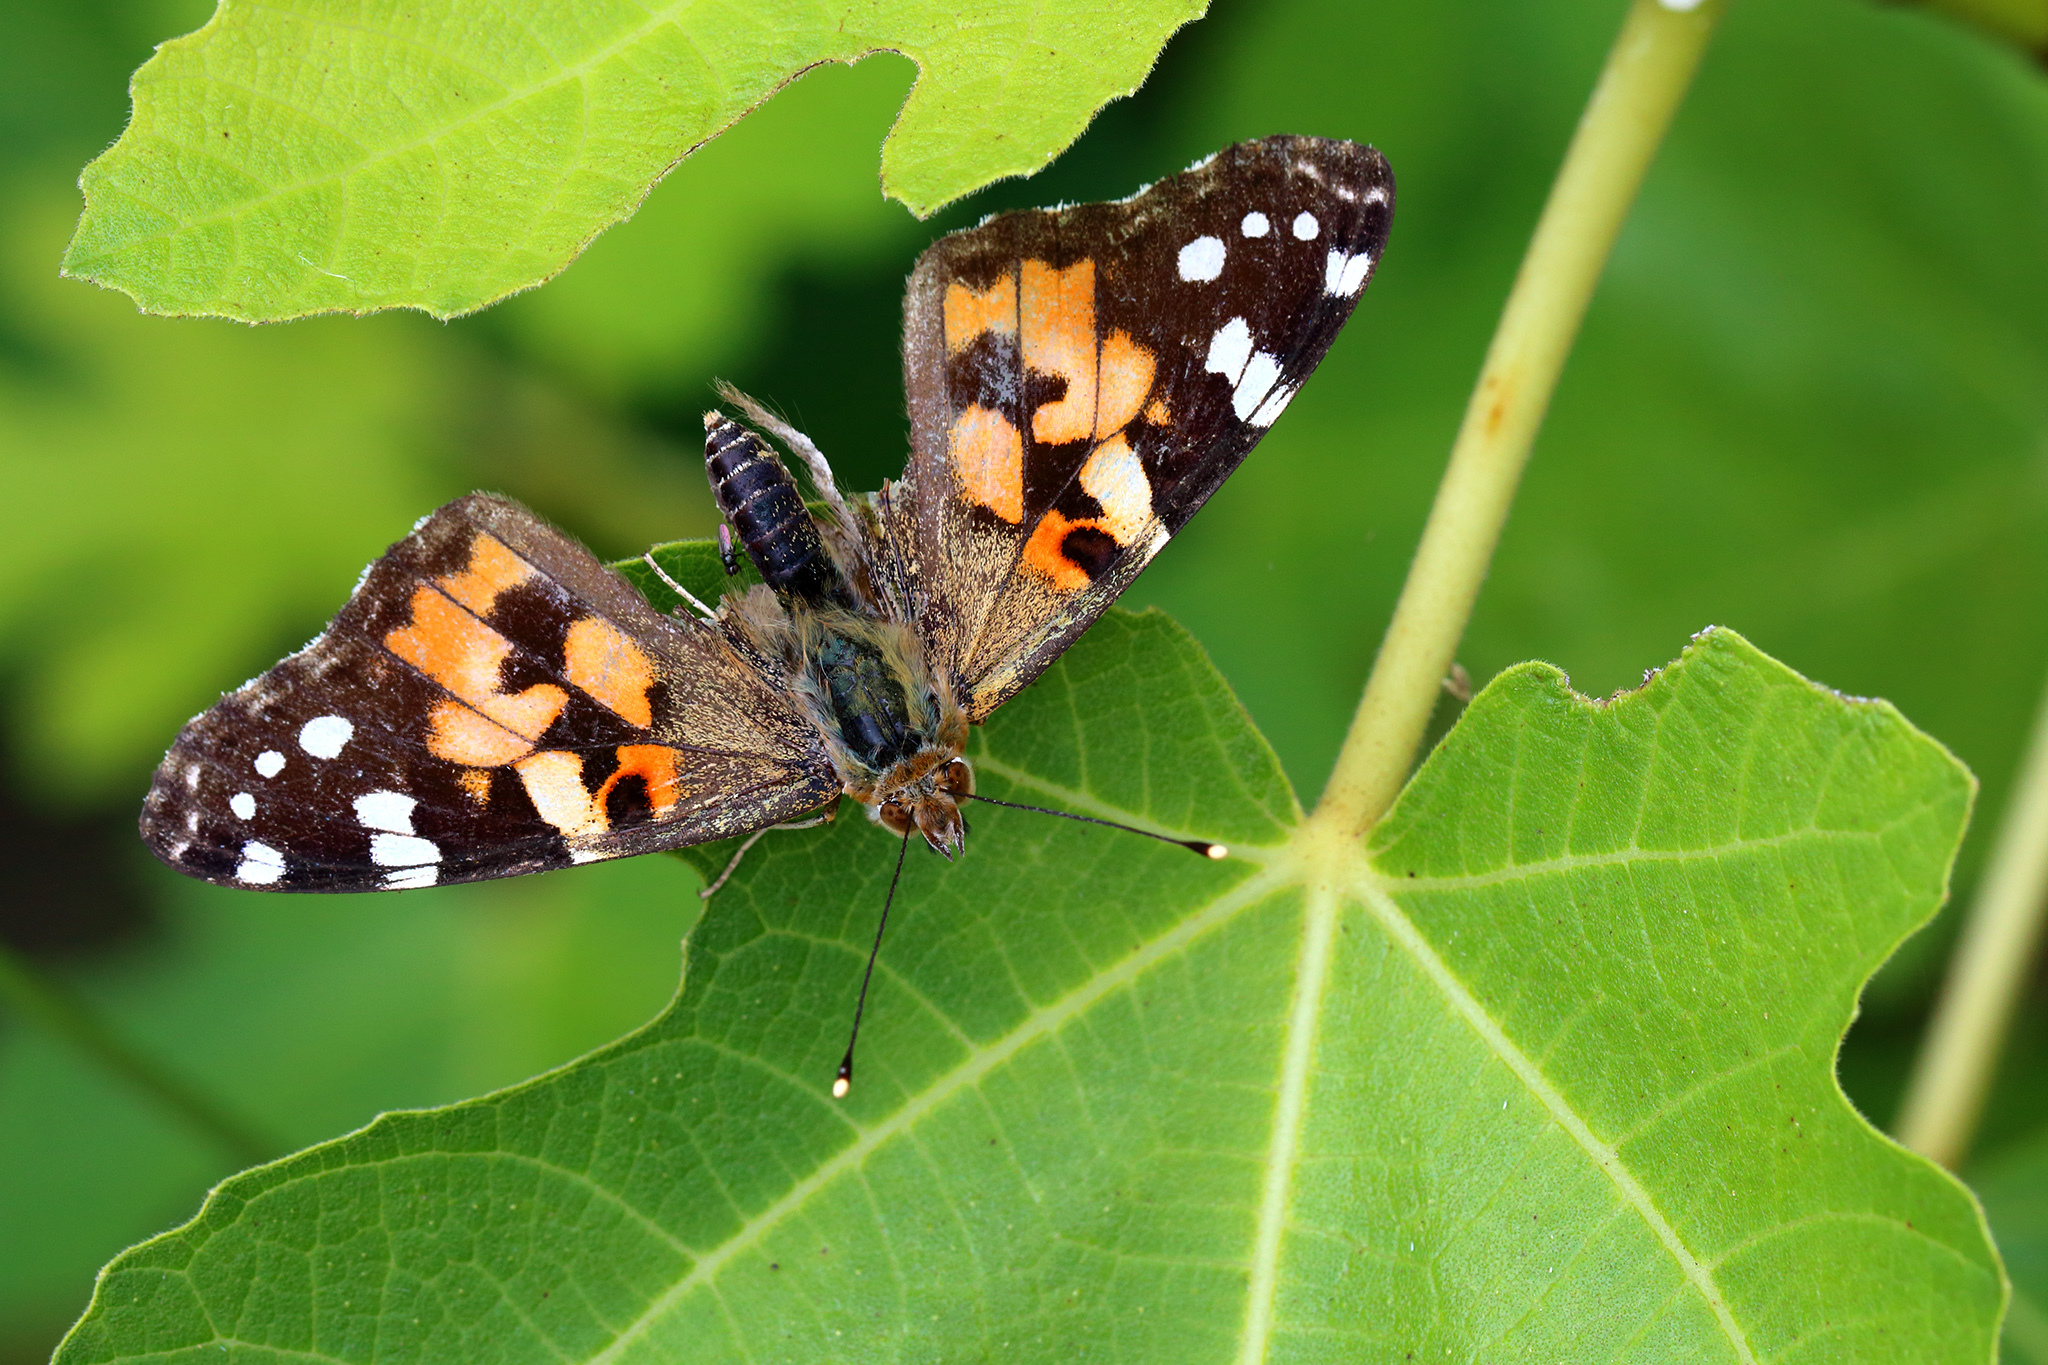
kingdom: Animalia
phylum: Arthropoda
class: Insecta
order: Lepidoptera
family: Nymphalidae
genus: Vanessa
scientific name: Vanessa cardui
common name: Painted lady
